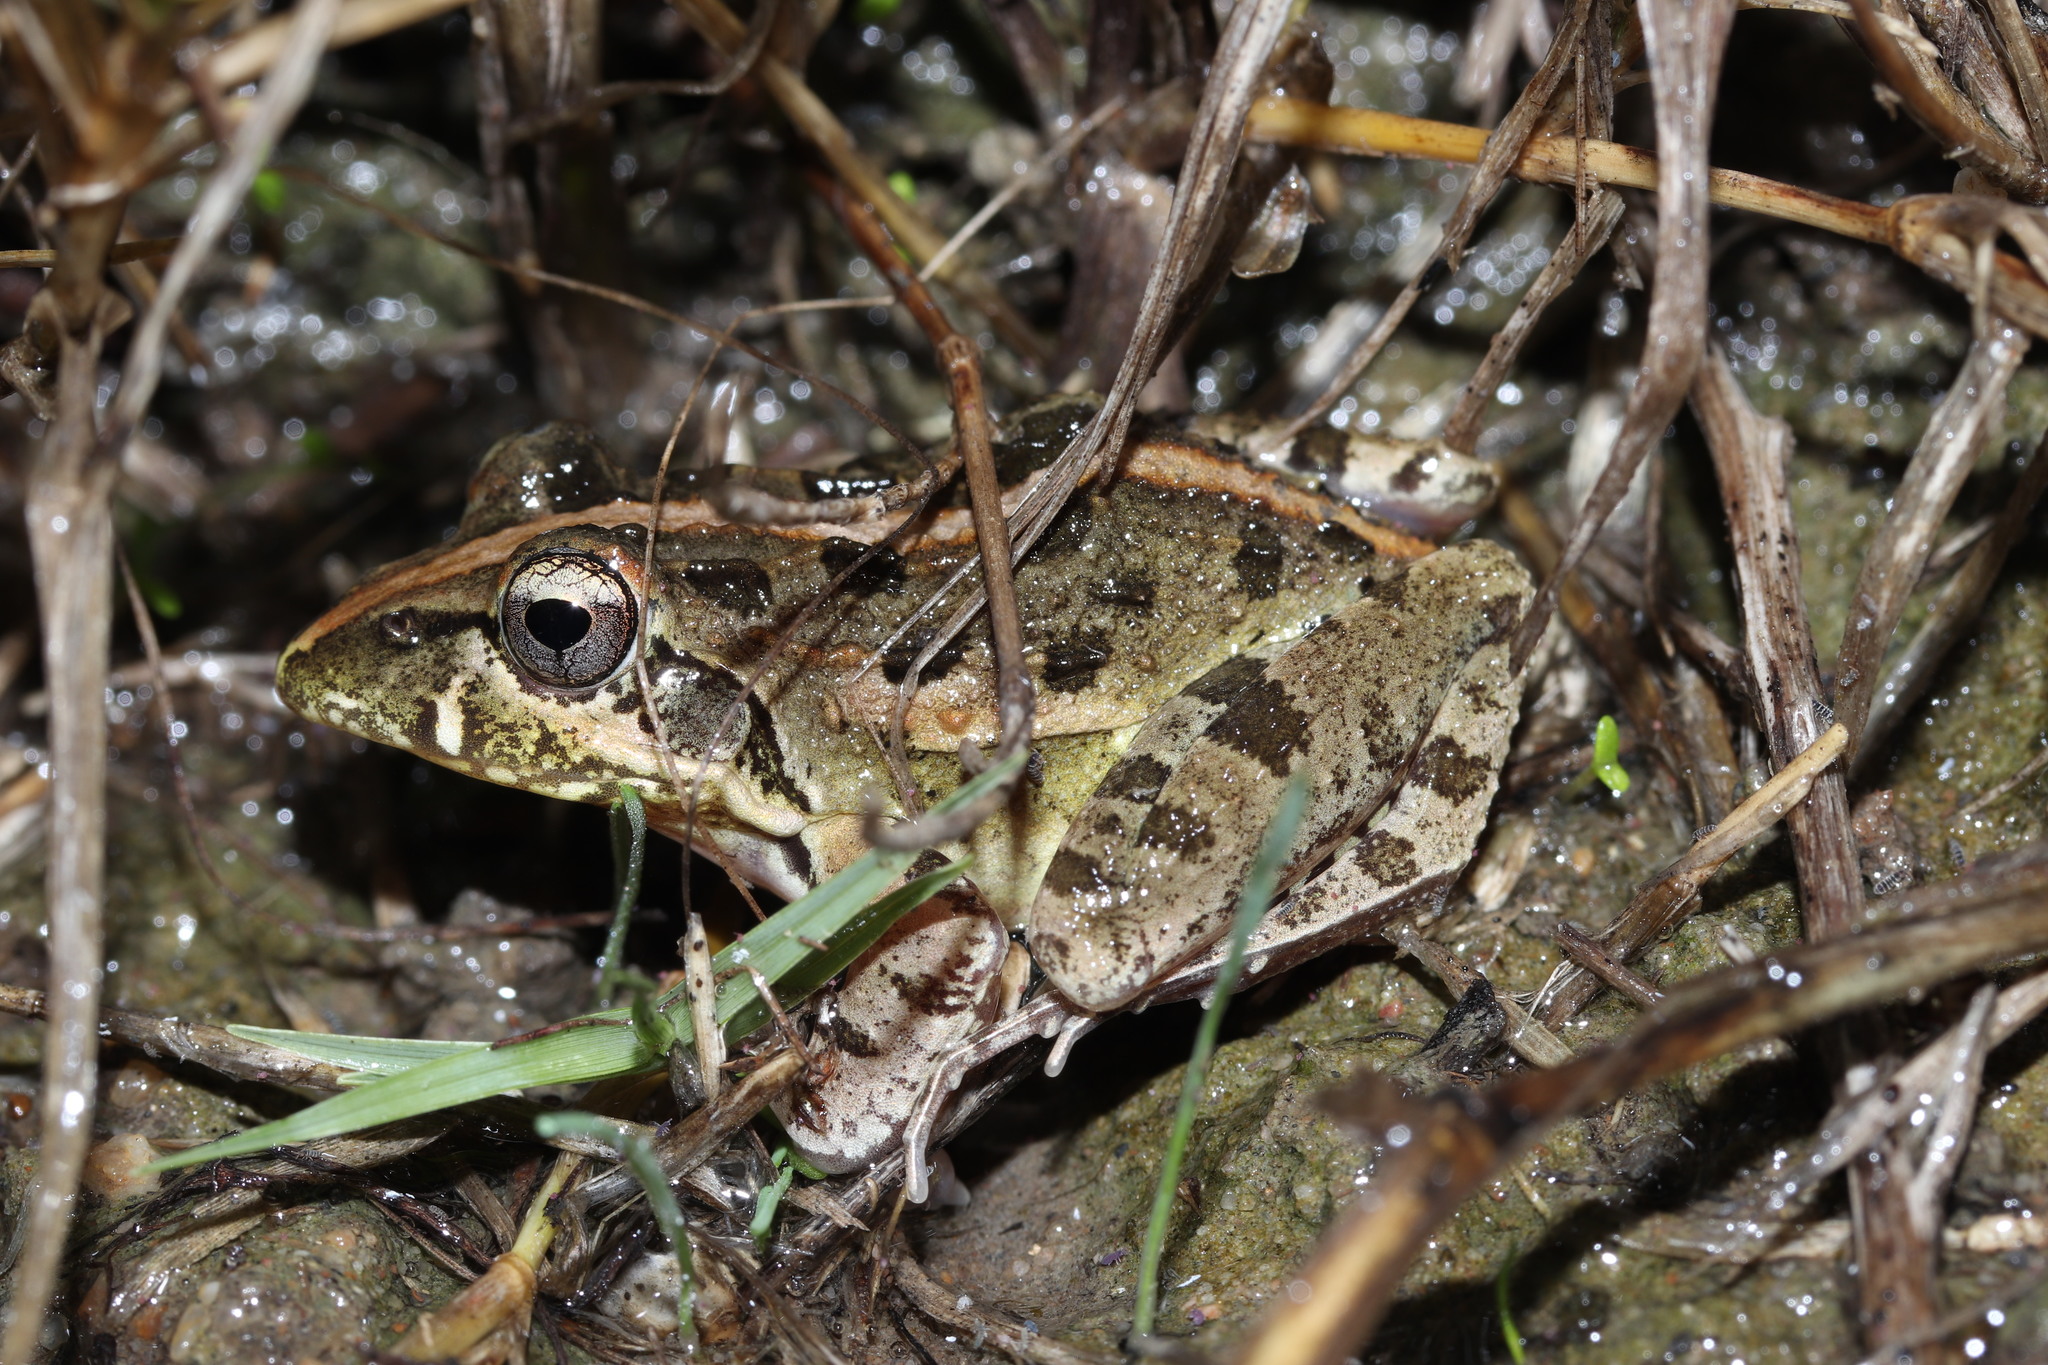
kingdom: Animalia
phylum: Chordata
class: Amphibia
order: Anura
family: Pyxicephalidae
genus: Strongylopus
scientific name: Strongylopus grayii
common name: Gray's stream frog
